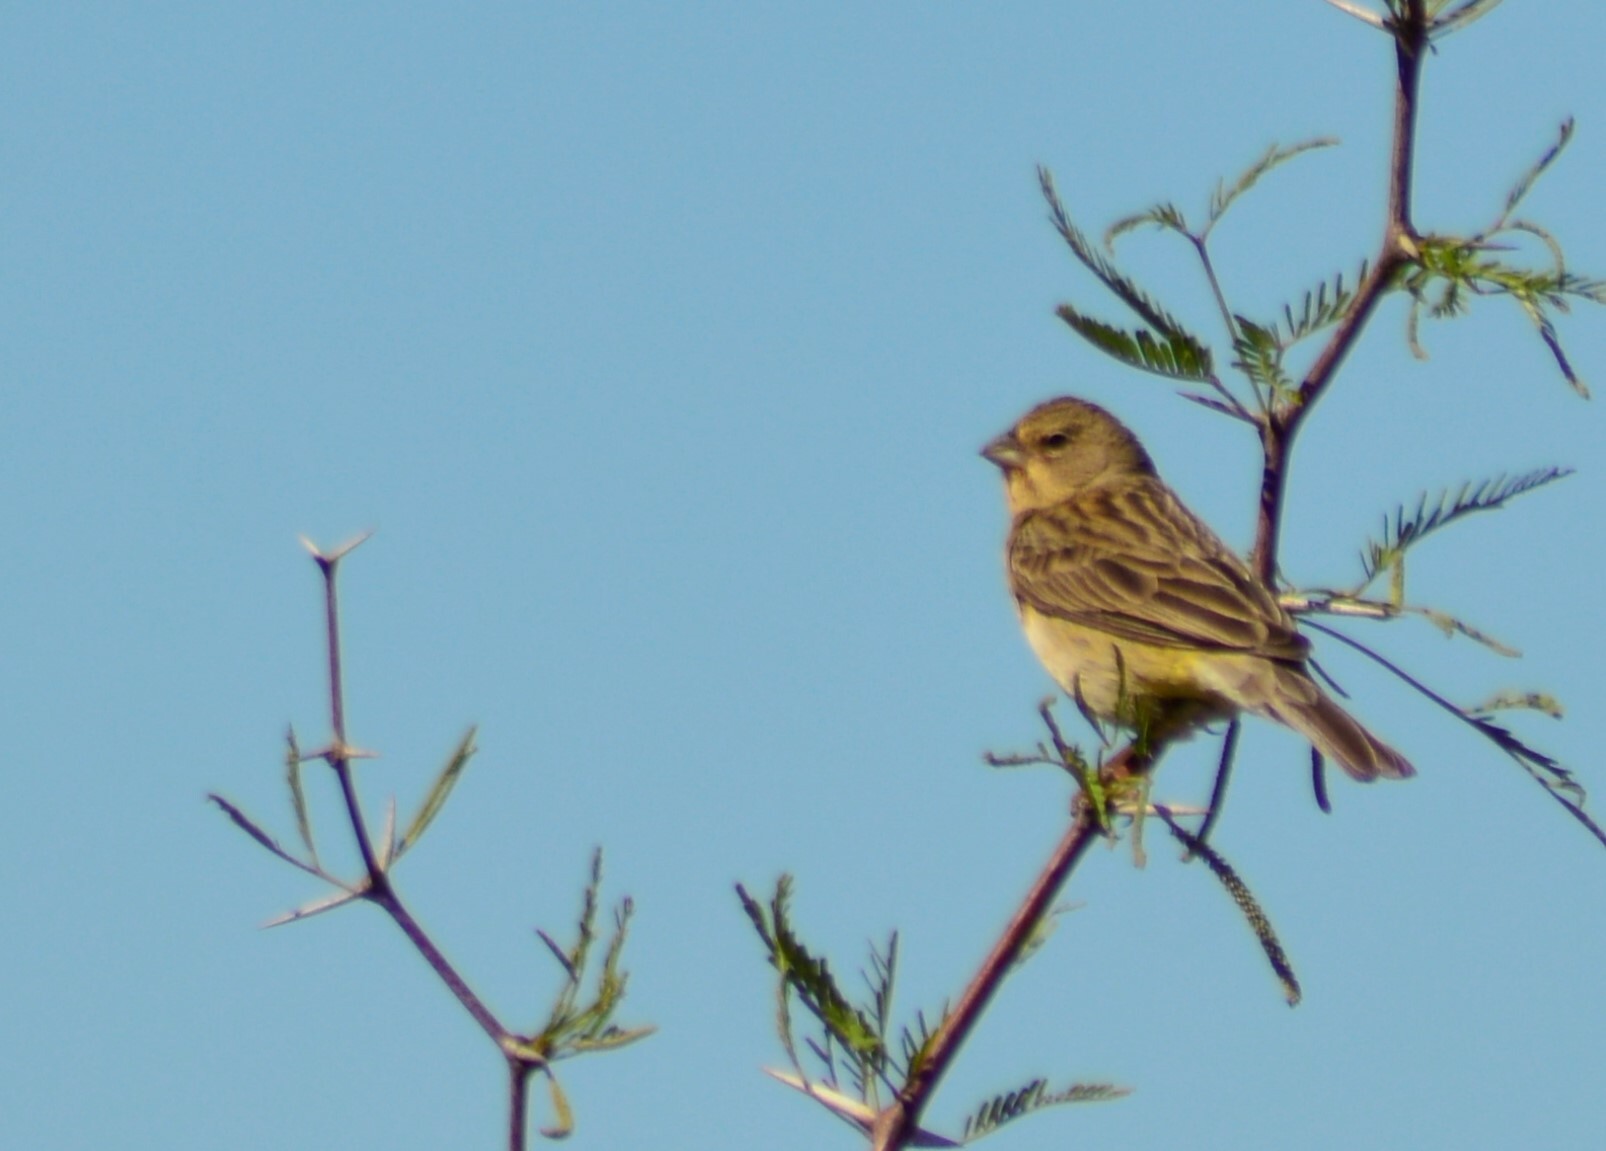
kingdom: Animalia
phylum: Chordata
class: Aves
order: Passeriformes
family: Thraupidae
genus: Sicalis
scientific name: Sicalis luteola
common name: Grassland yellow-finch
